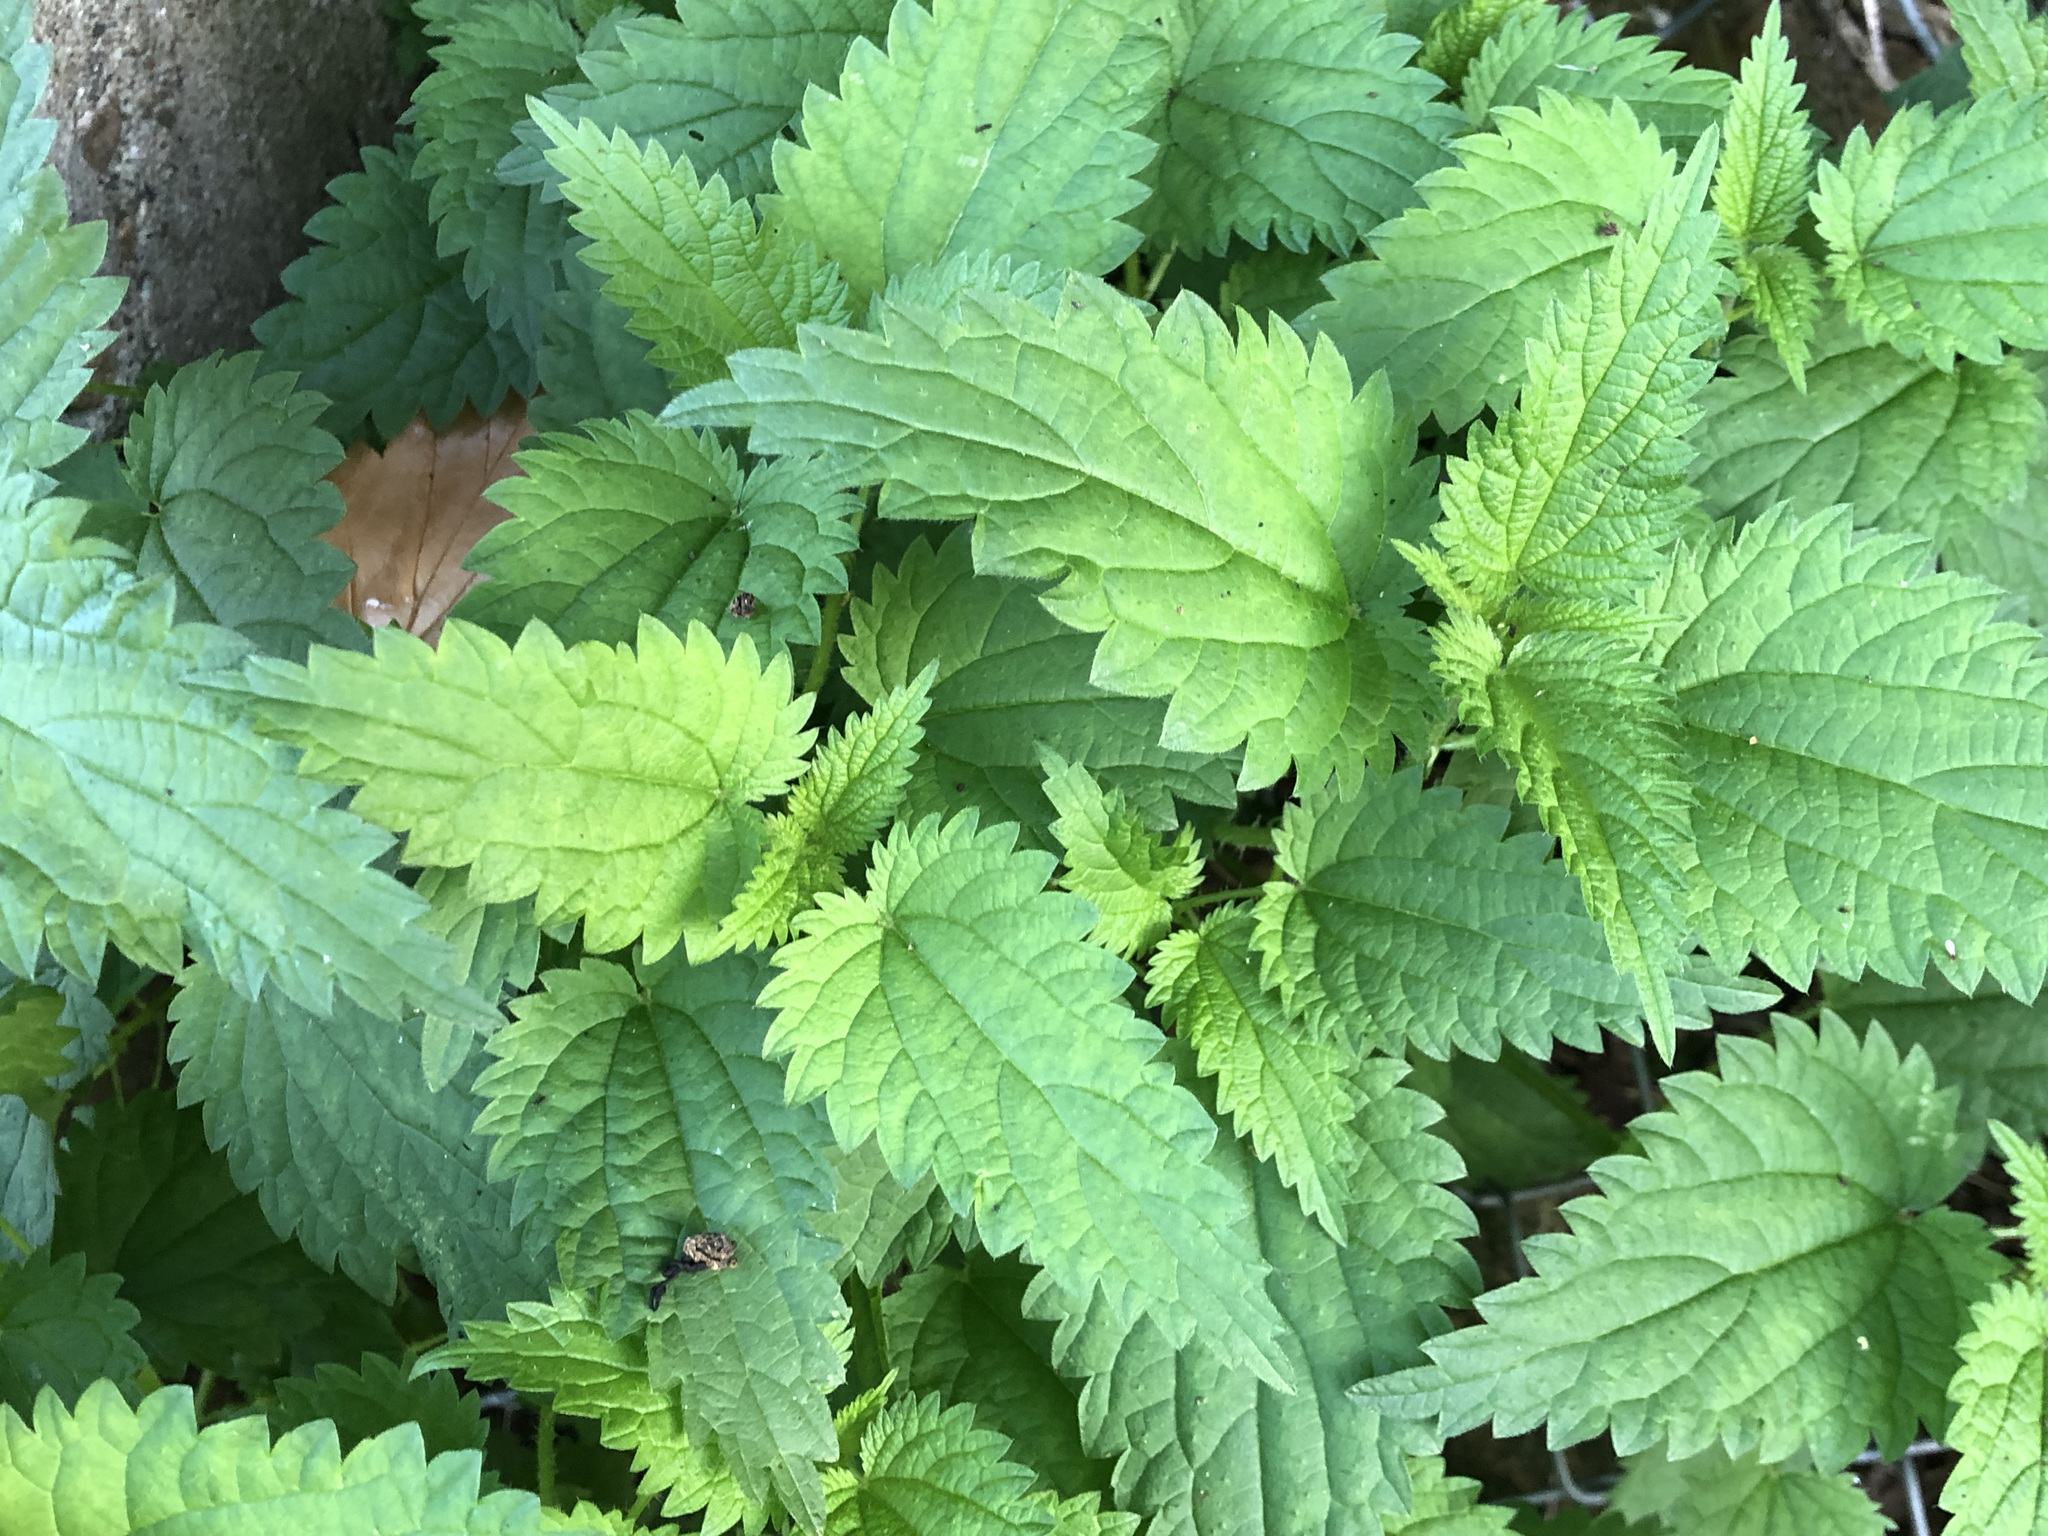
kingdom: Plantae
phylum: Tracheophyta
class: Magnoliopsida
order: Rosales
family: Urticaceae
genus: Urtica
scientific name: Urtica dioica
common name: Common nettle
